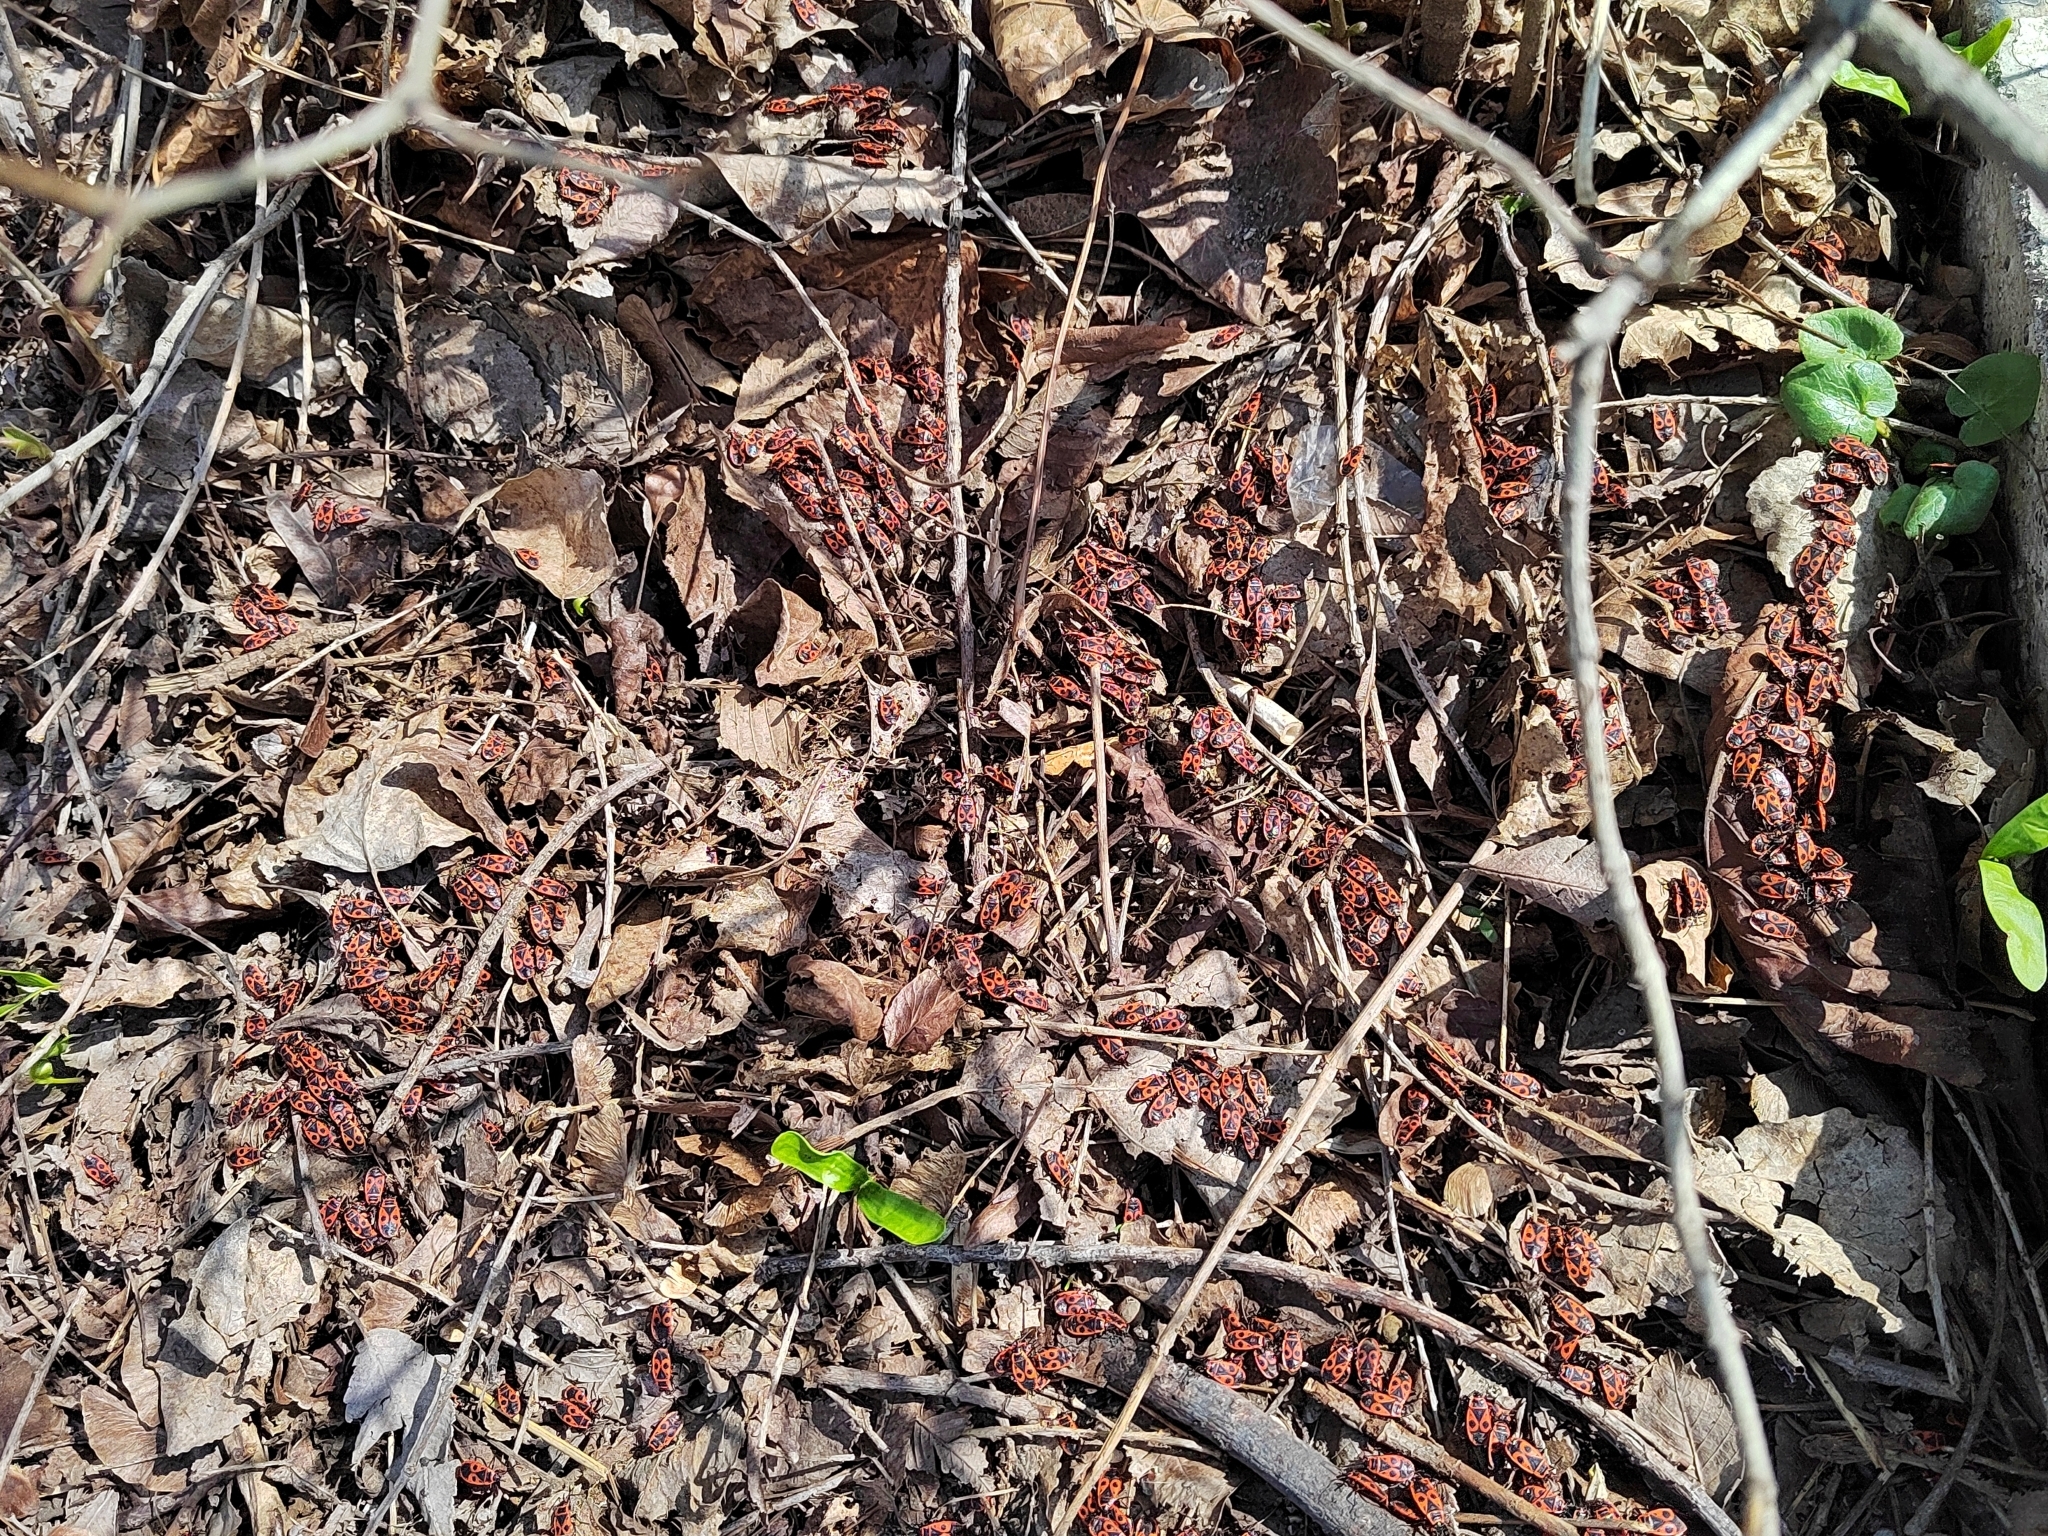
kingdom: Animalia
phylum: Arthropoda
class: Insecta
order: Hemiptera
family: Pyrrhocoridae
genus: Pyrrhocoris
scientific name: Pyrrhocoris apterus
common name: Firebug
